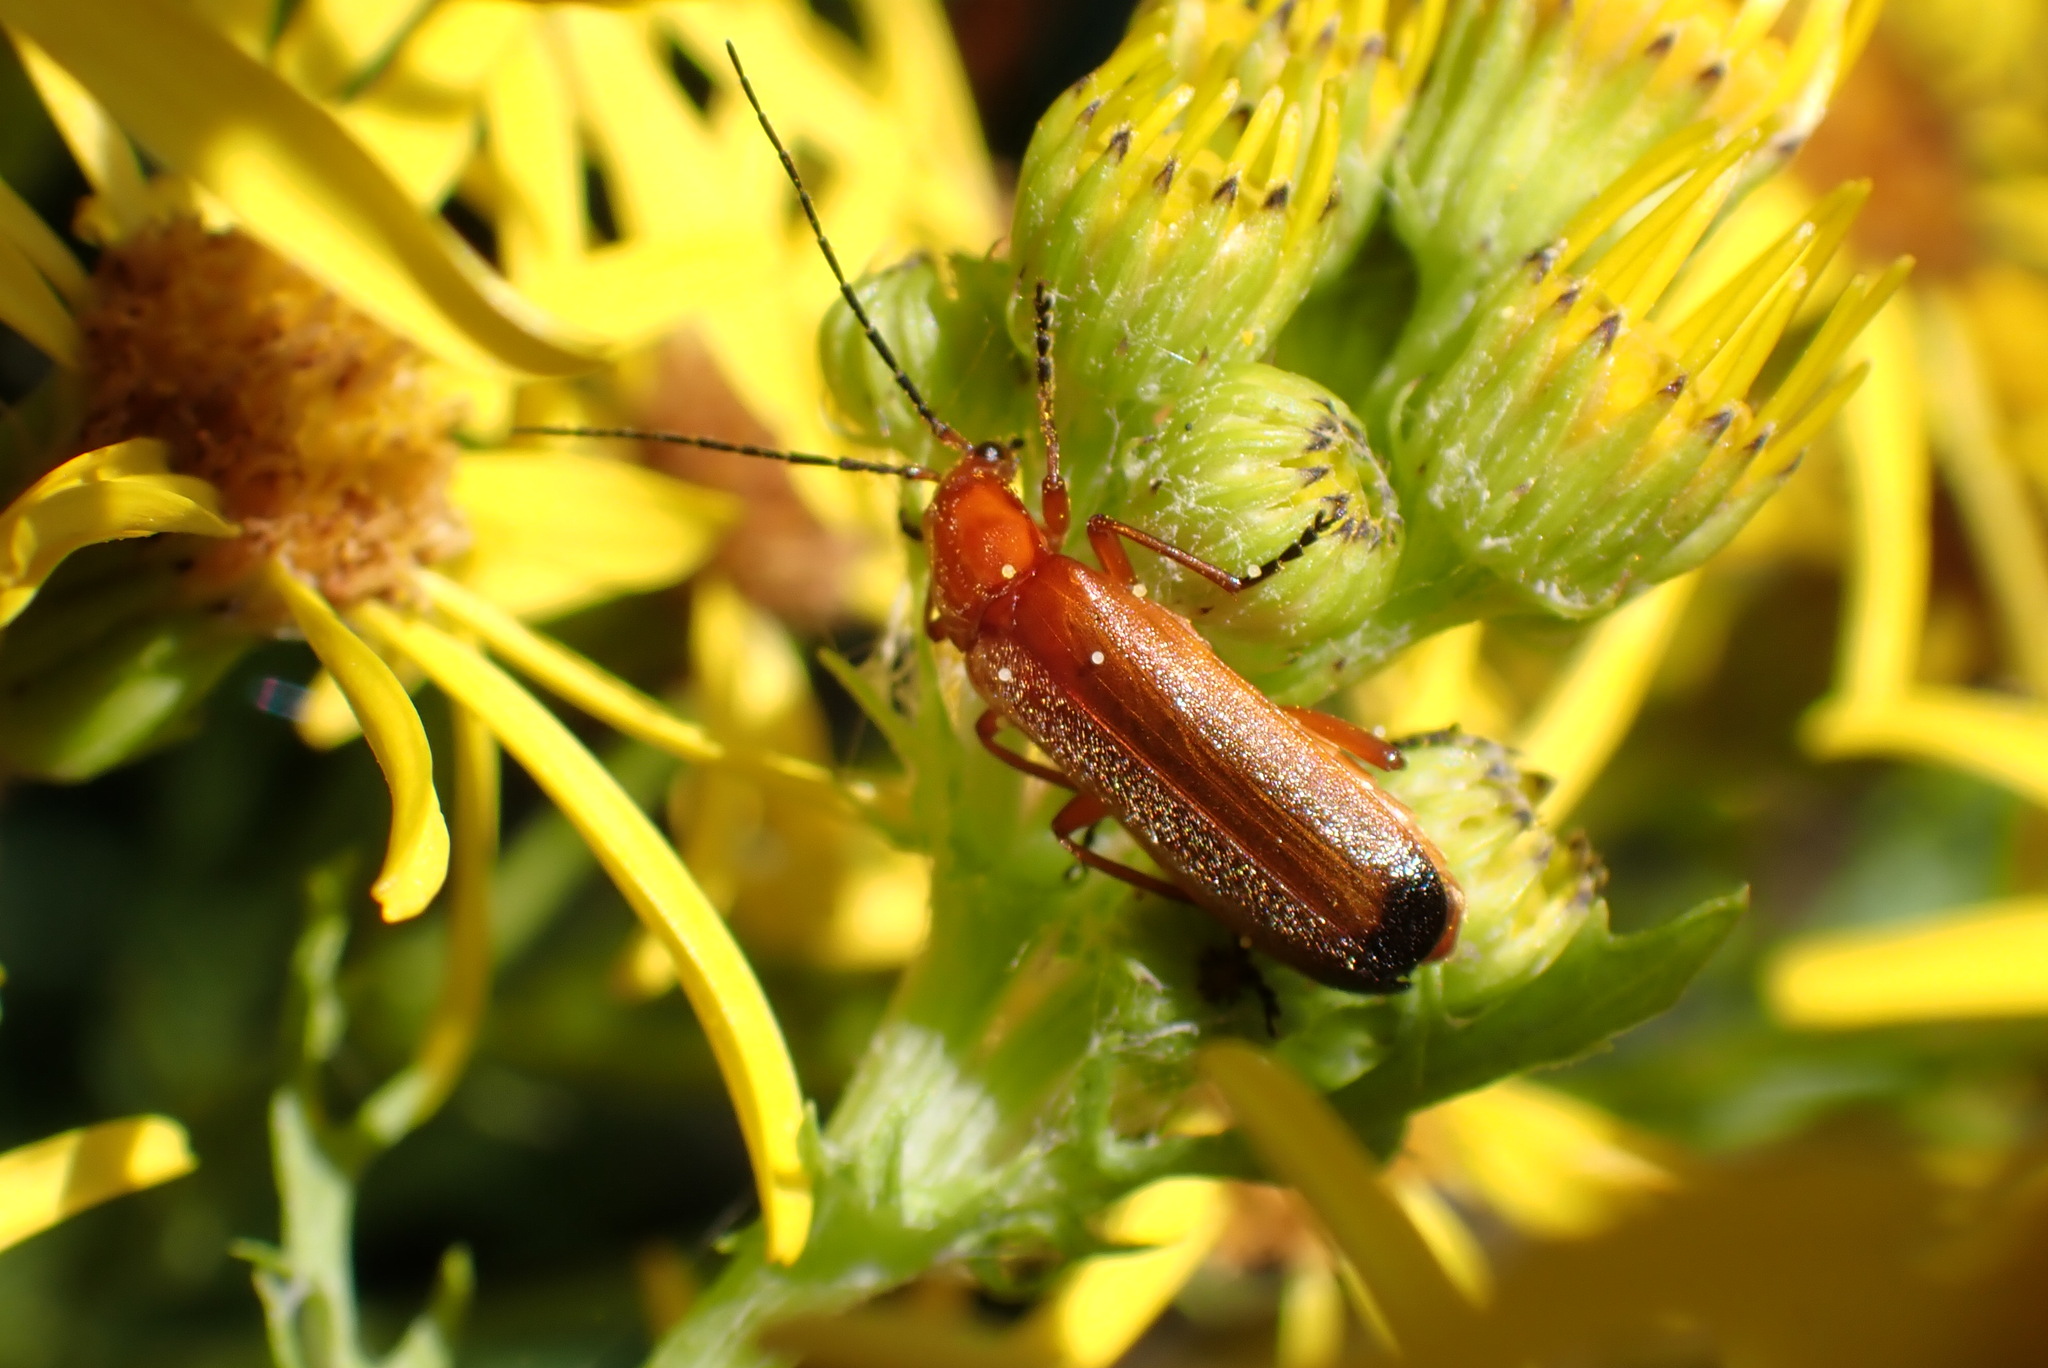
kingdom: Animalia
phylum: Arthropoda
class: Insecta
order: Coleoptera
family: Cantharidae
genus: Rhagonycha
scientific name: Rhagonycha fulva
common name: Common red soldier beetle
